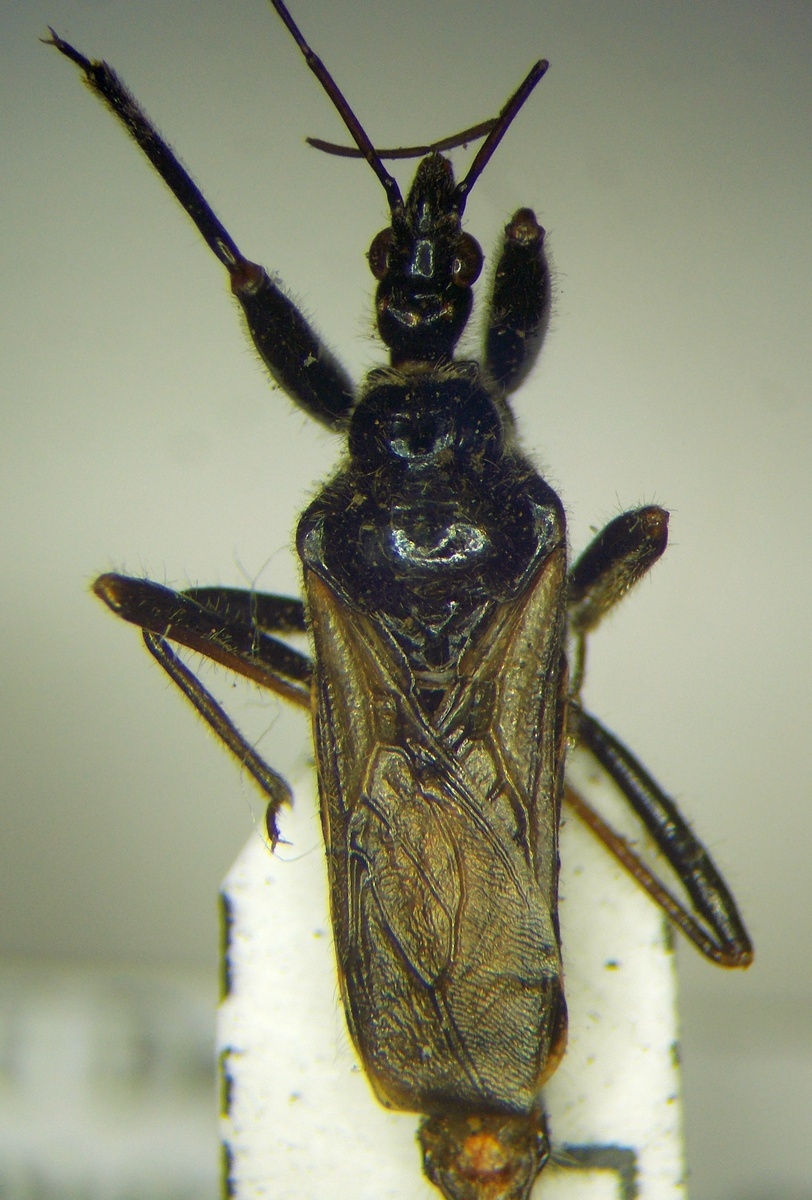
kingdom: Animalia
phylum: Arthropoda
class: Insecta
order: Hemiptera
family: Reduviidae
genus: Rhynocoris
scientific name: Rhynocoris niger
